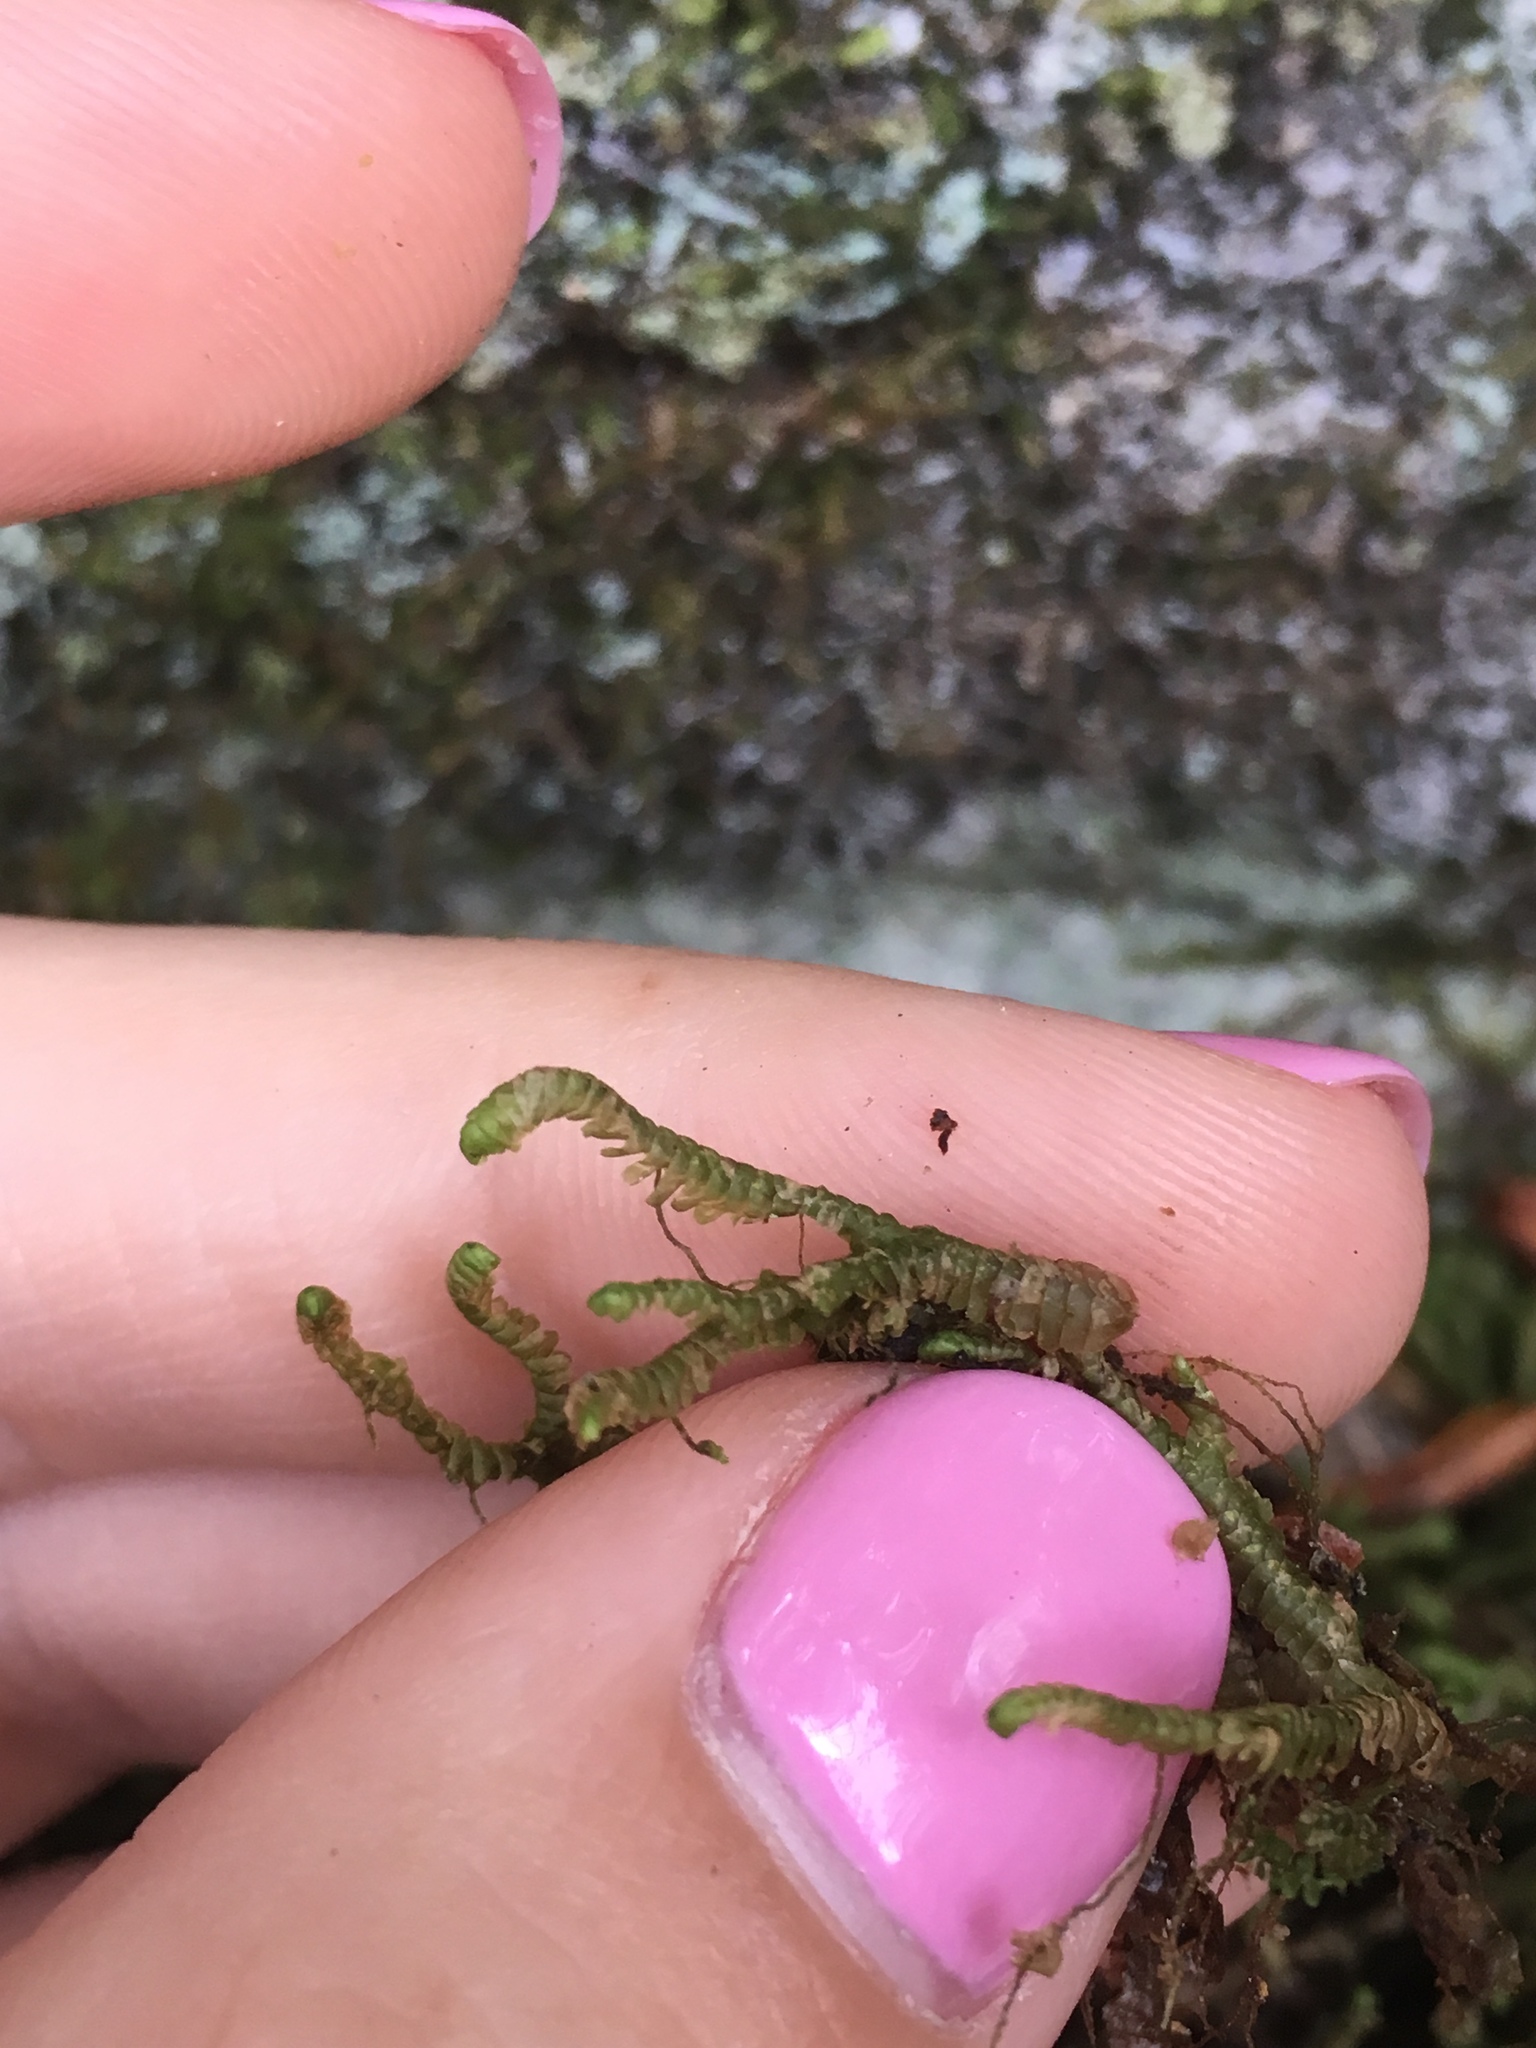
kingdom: Plantae
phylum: Marchantiophyta
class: Jungermanniopsida
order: Jungermanniales
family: Lepidoziaceae
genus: Bazzania
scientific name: Bazzania trilobata
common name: Three-lobed whipwort
